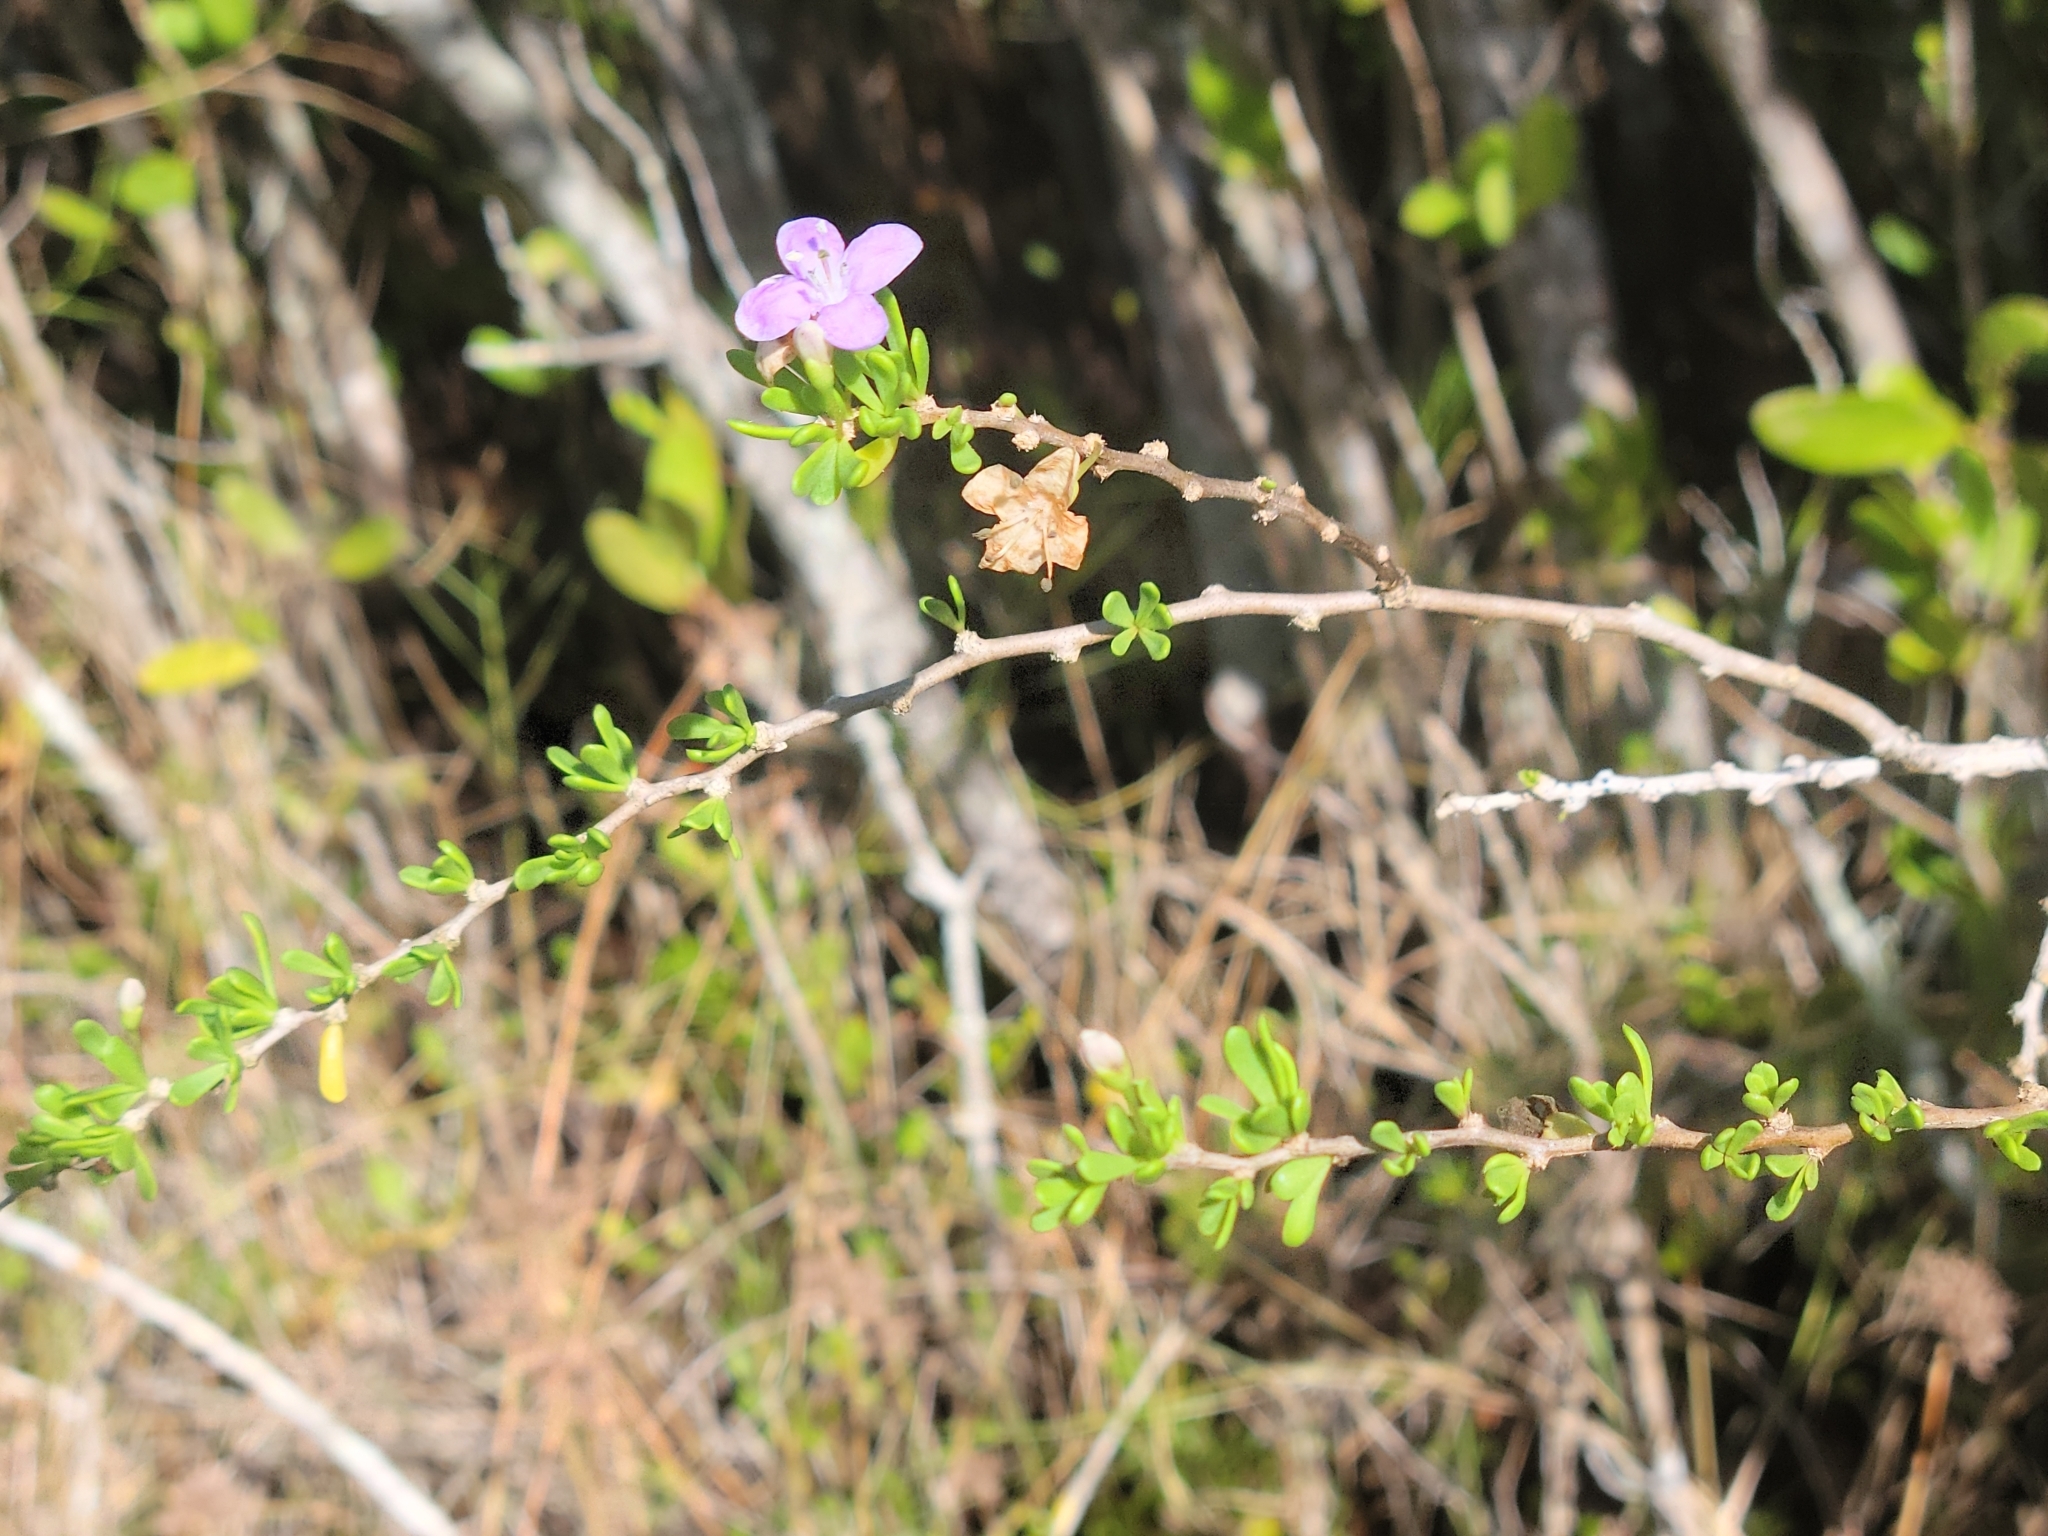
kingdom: Plantae
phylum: Tracheophyta
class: Magnoliopsida
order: Solanales
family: Solanaceae
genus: Lycium
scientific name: Lycium carolinianum
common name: Christmasberry
